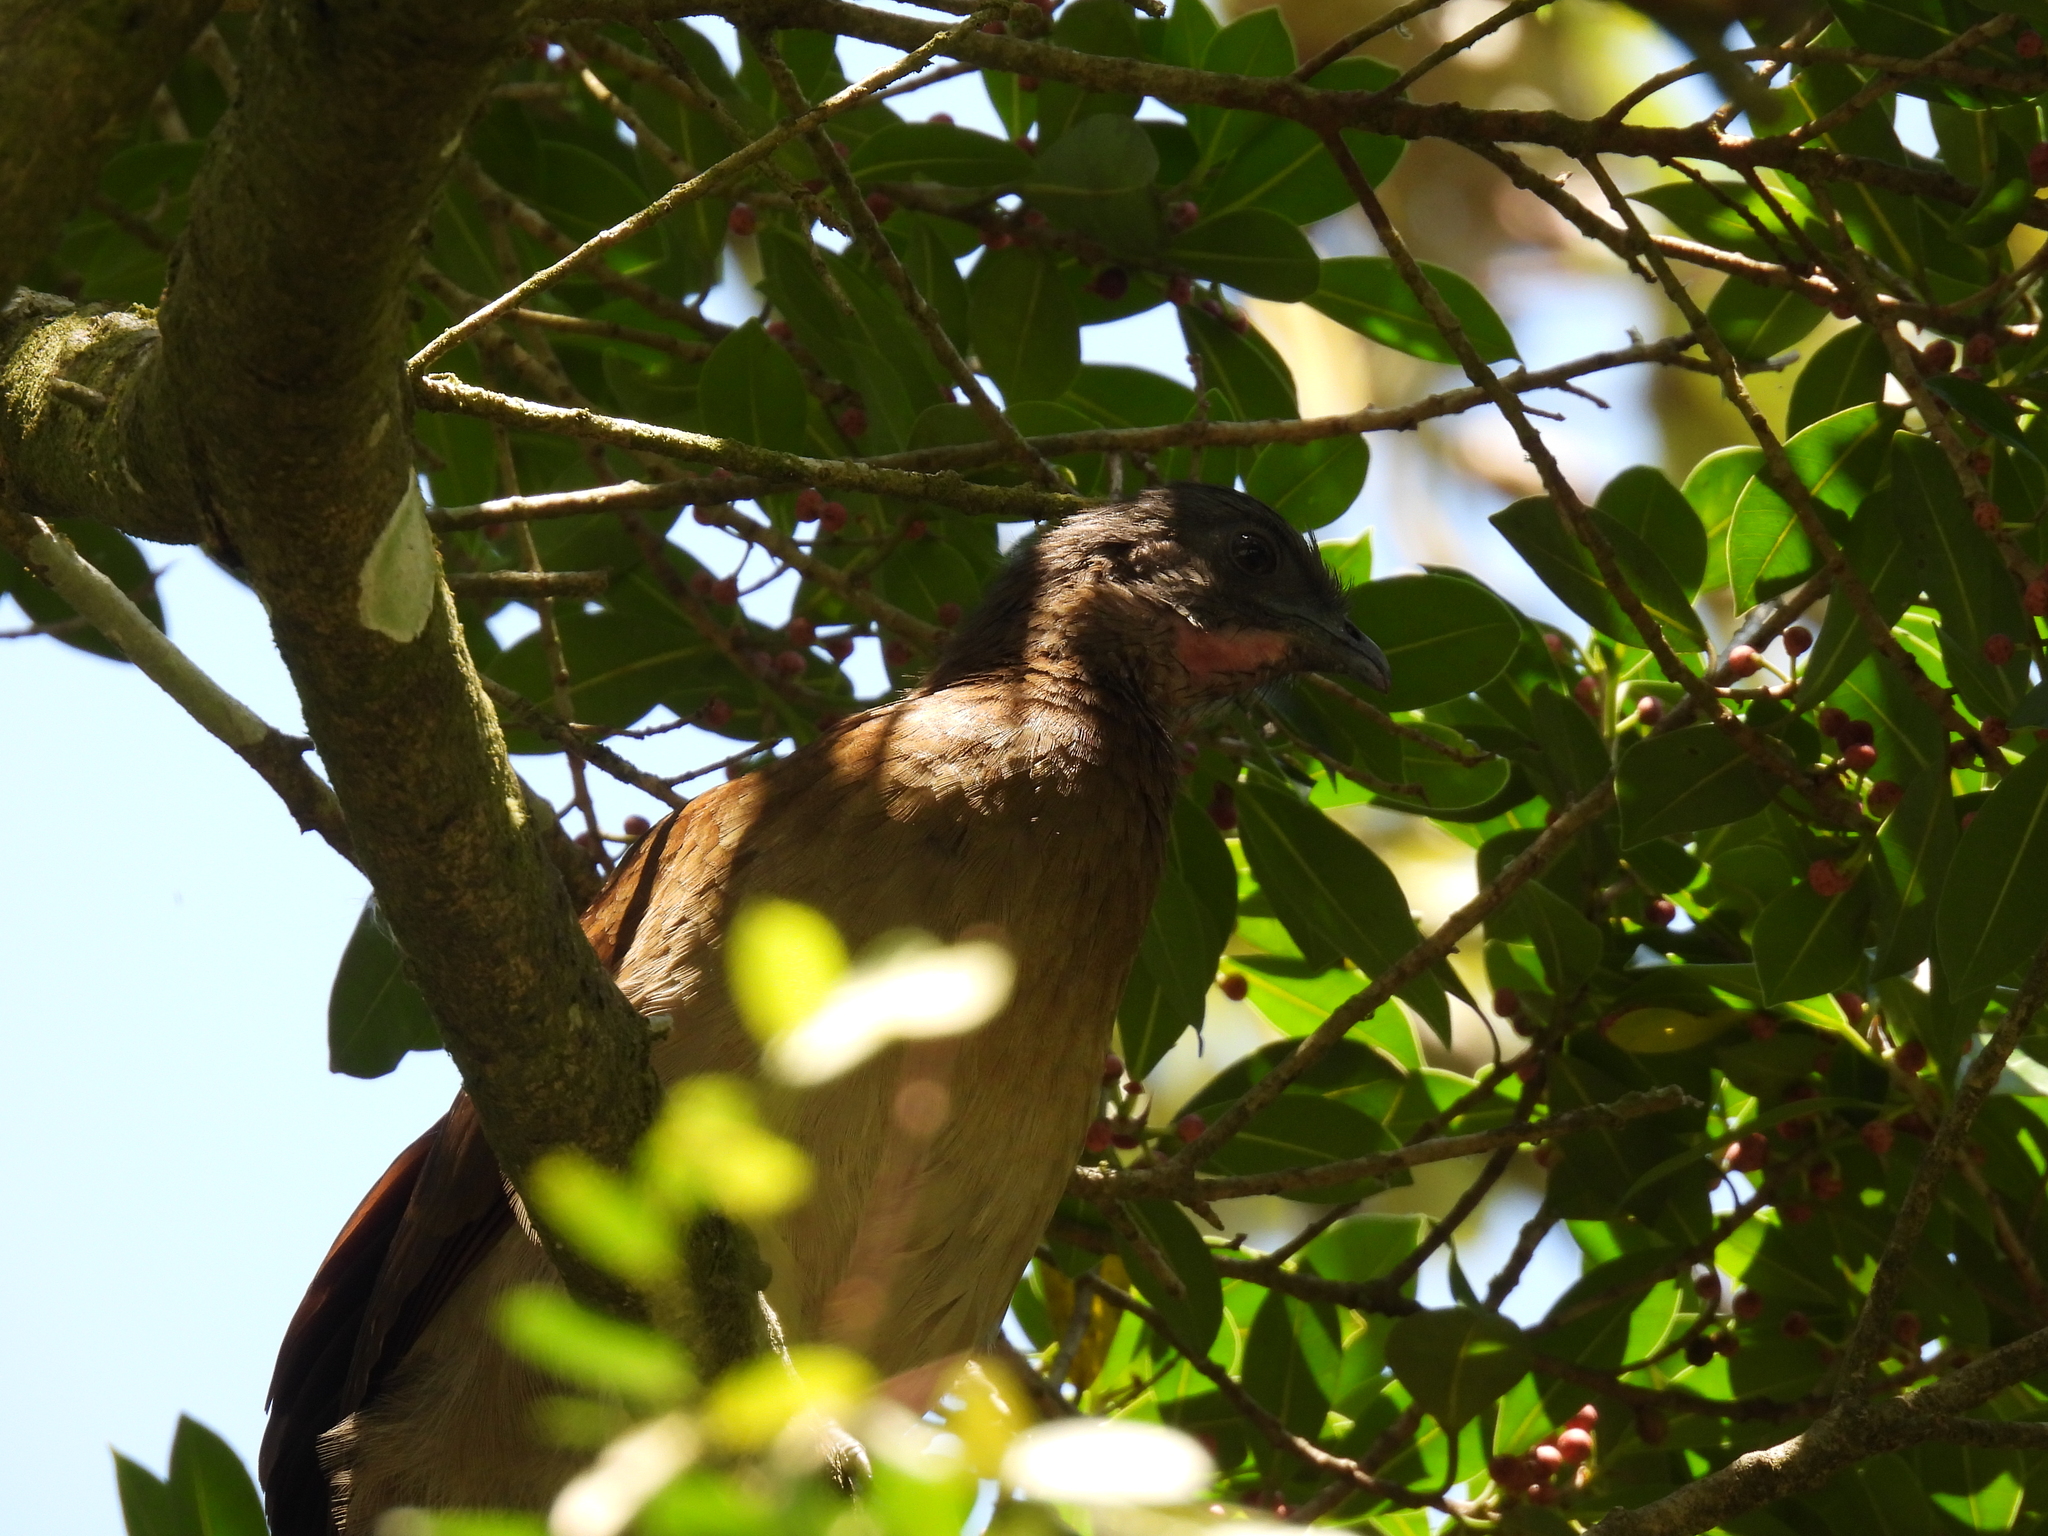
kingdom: Animalia
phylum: Chordata
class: Aves
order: Galliformes
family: Cracidae
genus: Ortalis
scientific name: Ortalis cinereiceps
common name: Grey-headed chachalaca
